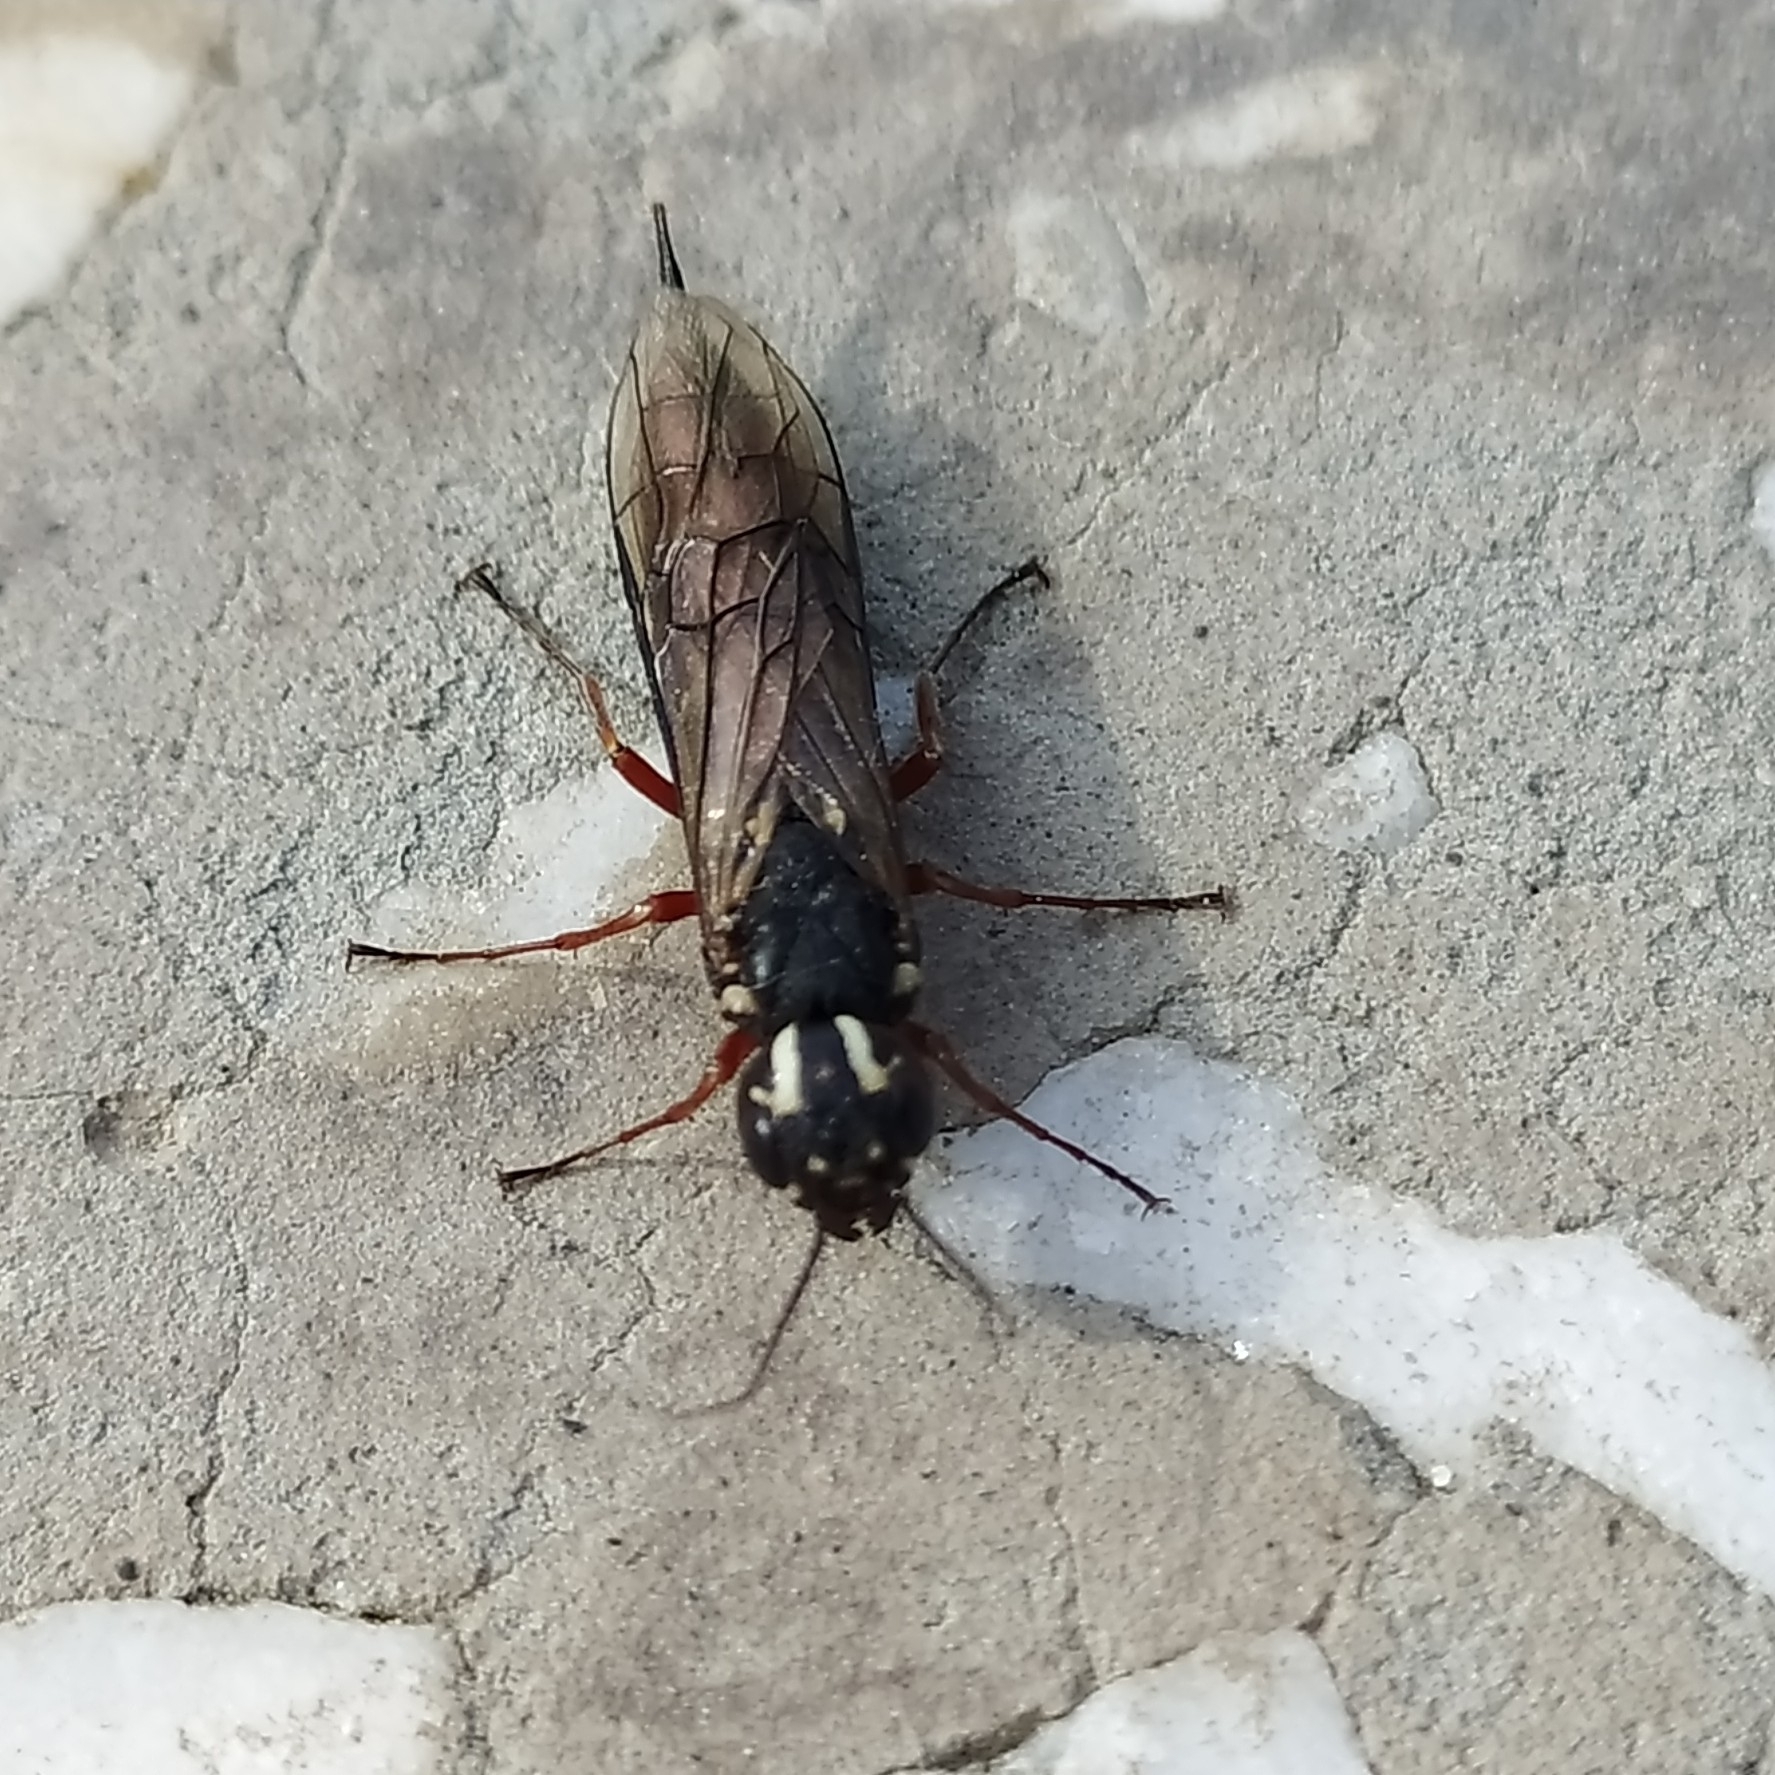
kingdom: Animalia
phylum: Arthropoda
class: Insecta
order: Hymenoptera
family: Xiphydriidae
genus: Xiphydria
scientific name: Xiphydria picta
